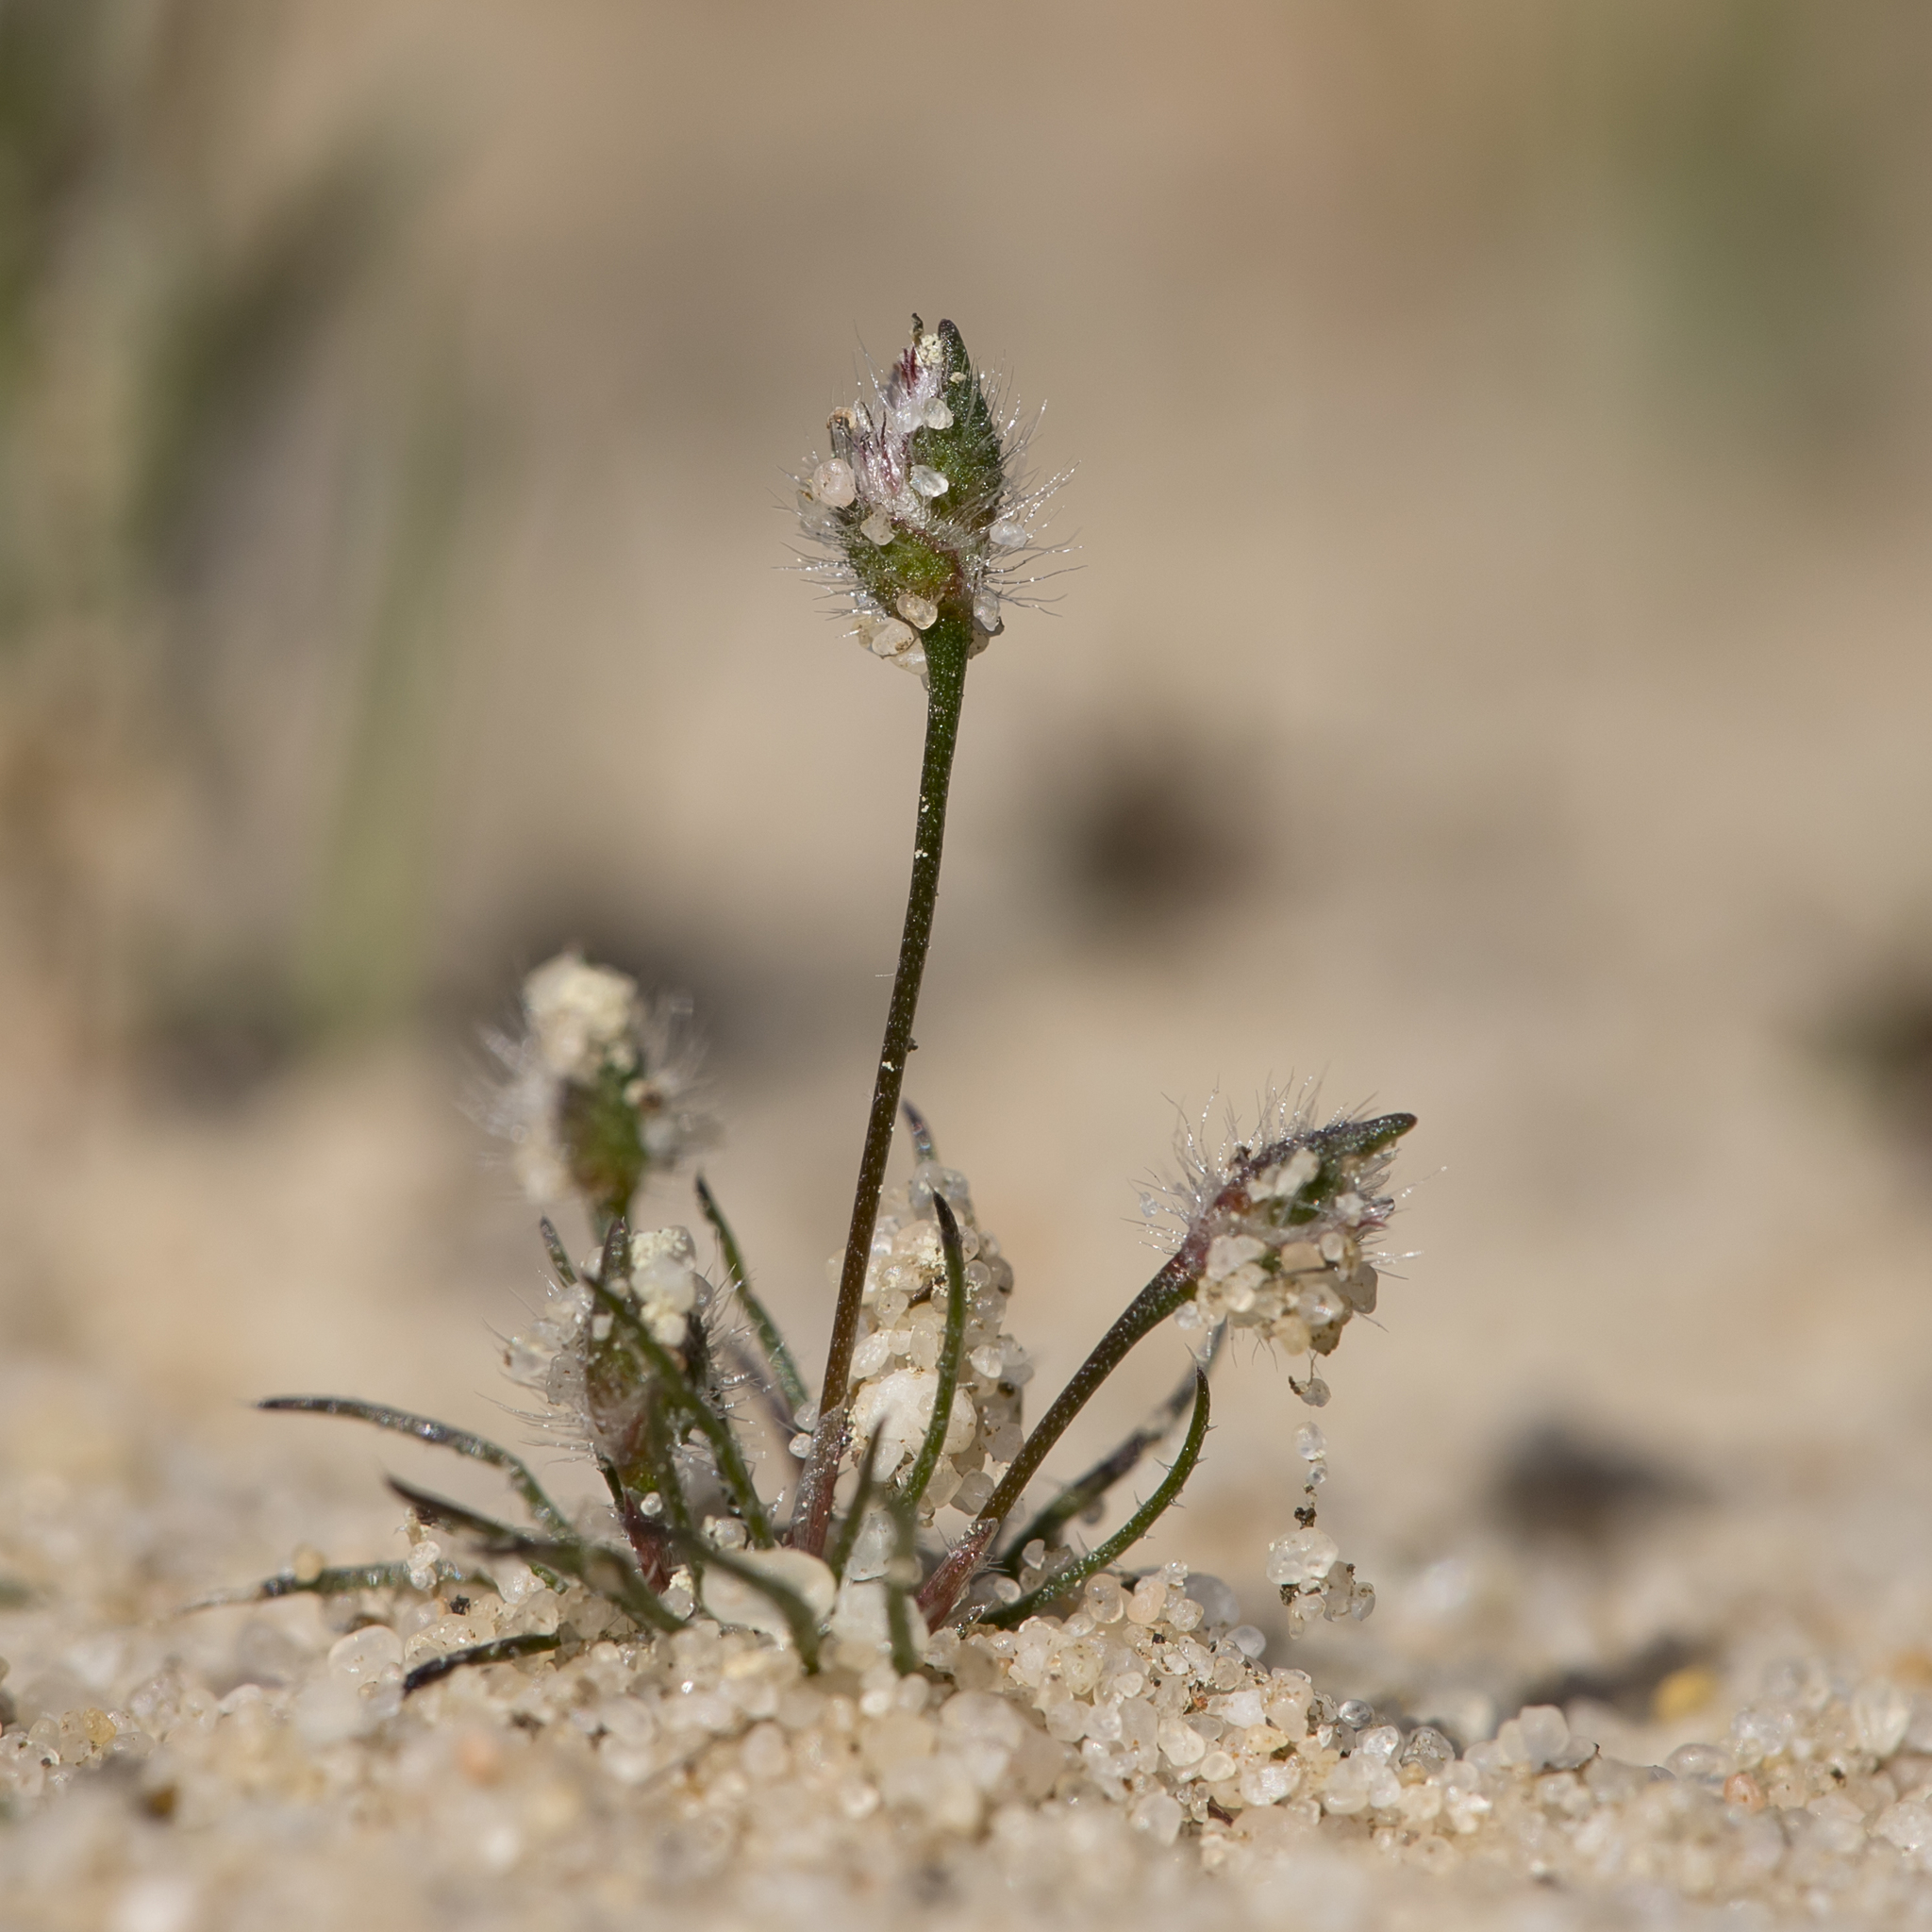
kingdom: Plantae
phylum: Tracheophyta
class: Liliopsida
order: Poales
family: Restionaceae
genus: Centrolepis
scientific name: Centrolepis strigosa
